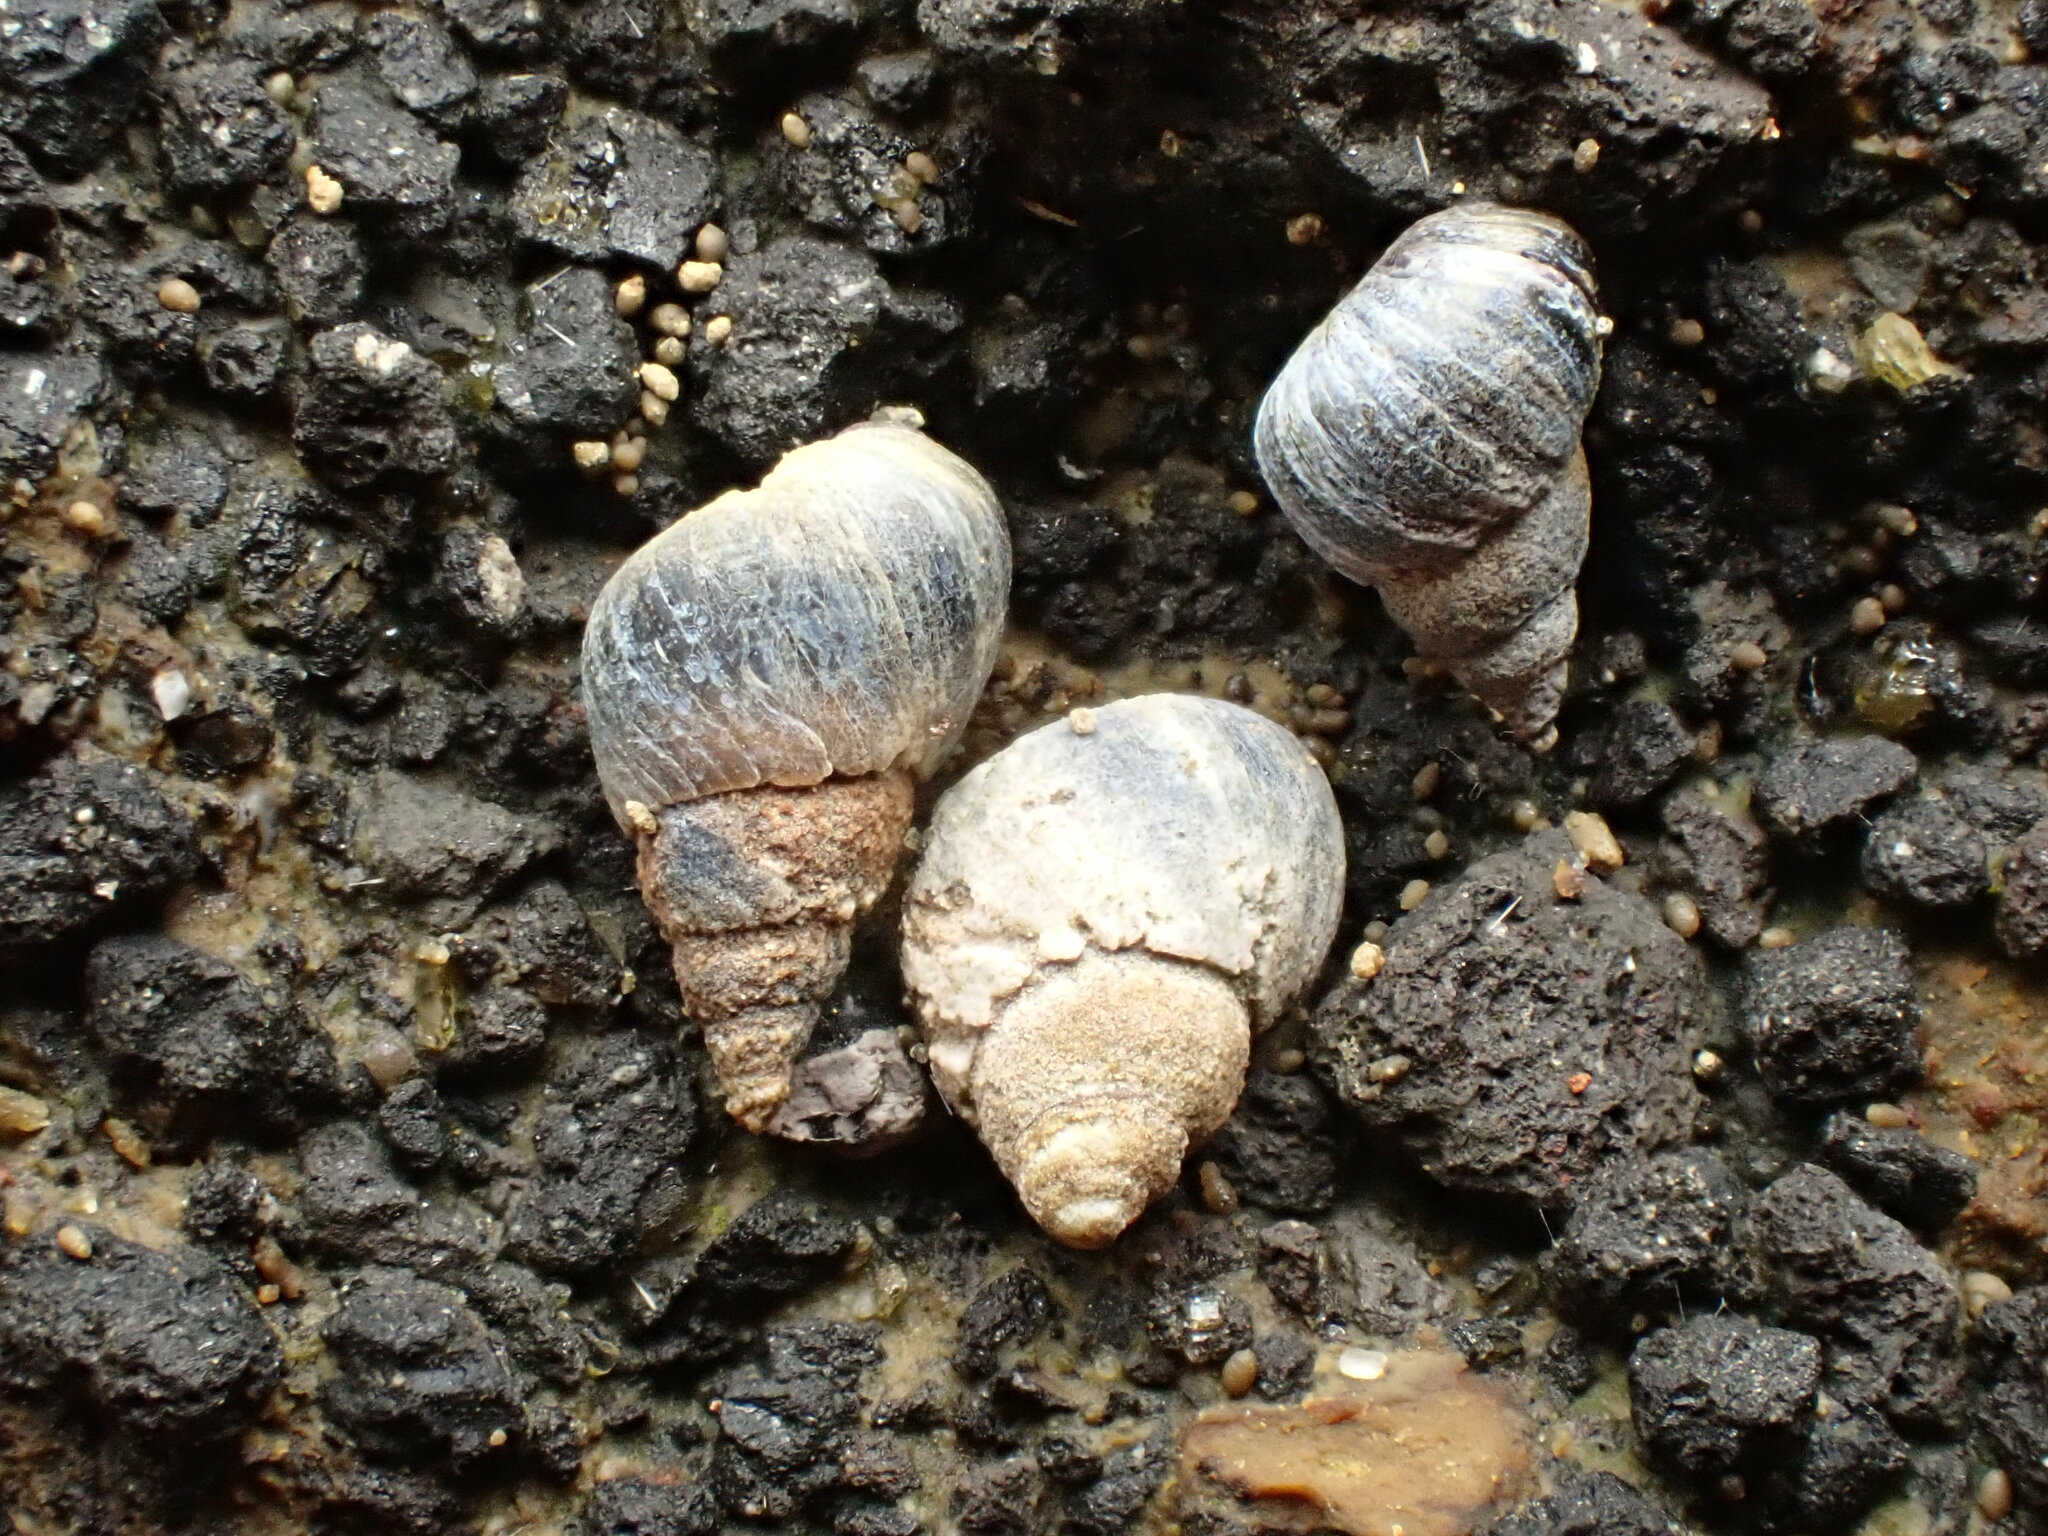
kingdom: Animalia
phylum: Mollusca
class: Gastropoda
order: Littorinimorpha
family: Littorinidae
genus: Austrolittorina
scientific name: Austrolittorina antipodum
